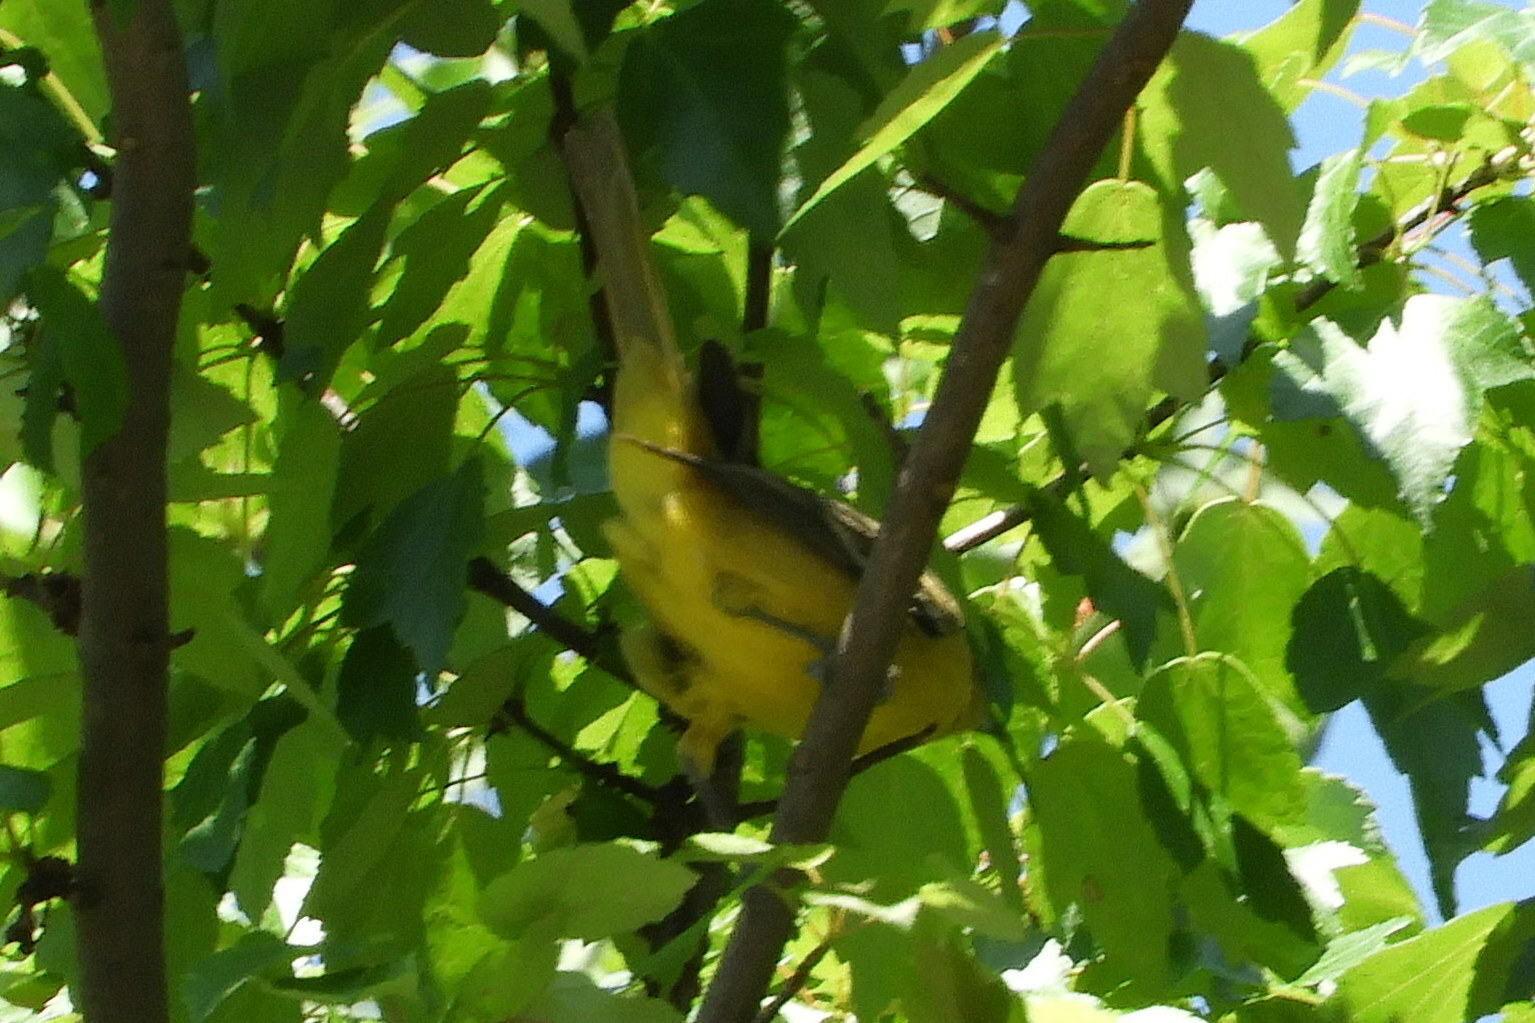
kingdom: Animalia
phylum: Chordata
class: Aves
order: Passeriformes
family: Icteridae
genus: Icterus
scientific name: Icterus spurius
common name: Orchard oriole
